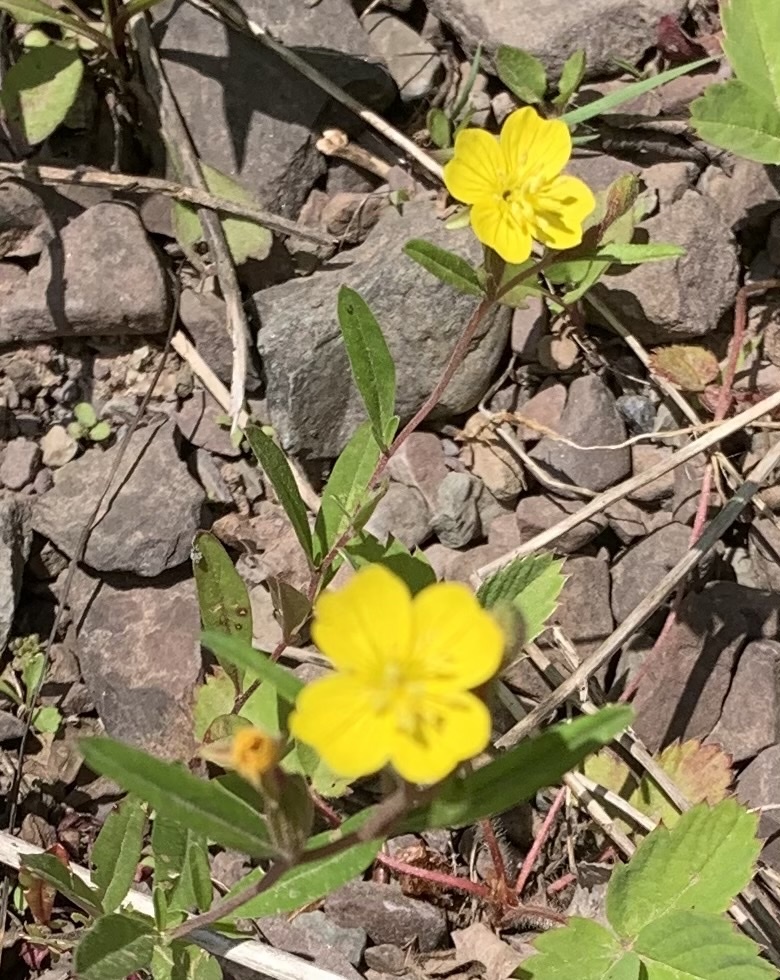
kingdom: Plantae
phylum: Tracheophyta
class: Magnoliopsida
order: Myrtales
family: Onagraceae
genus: Oenothera
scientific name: Oenothera perennis
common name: Small sundrops
